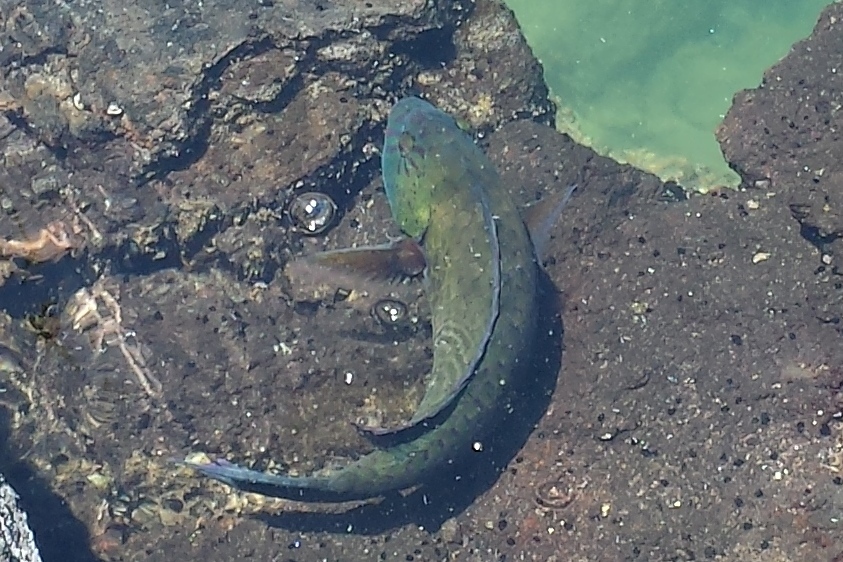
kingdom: Animalia
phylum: Chordata
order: Perciformes
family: Scaridae
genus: Calotomus
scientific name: Calotomus carolinus
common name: Bucktooth
